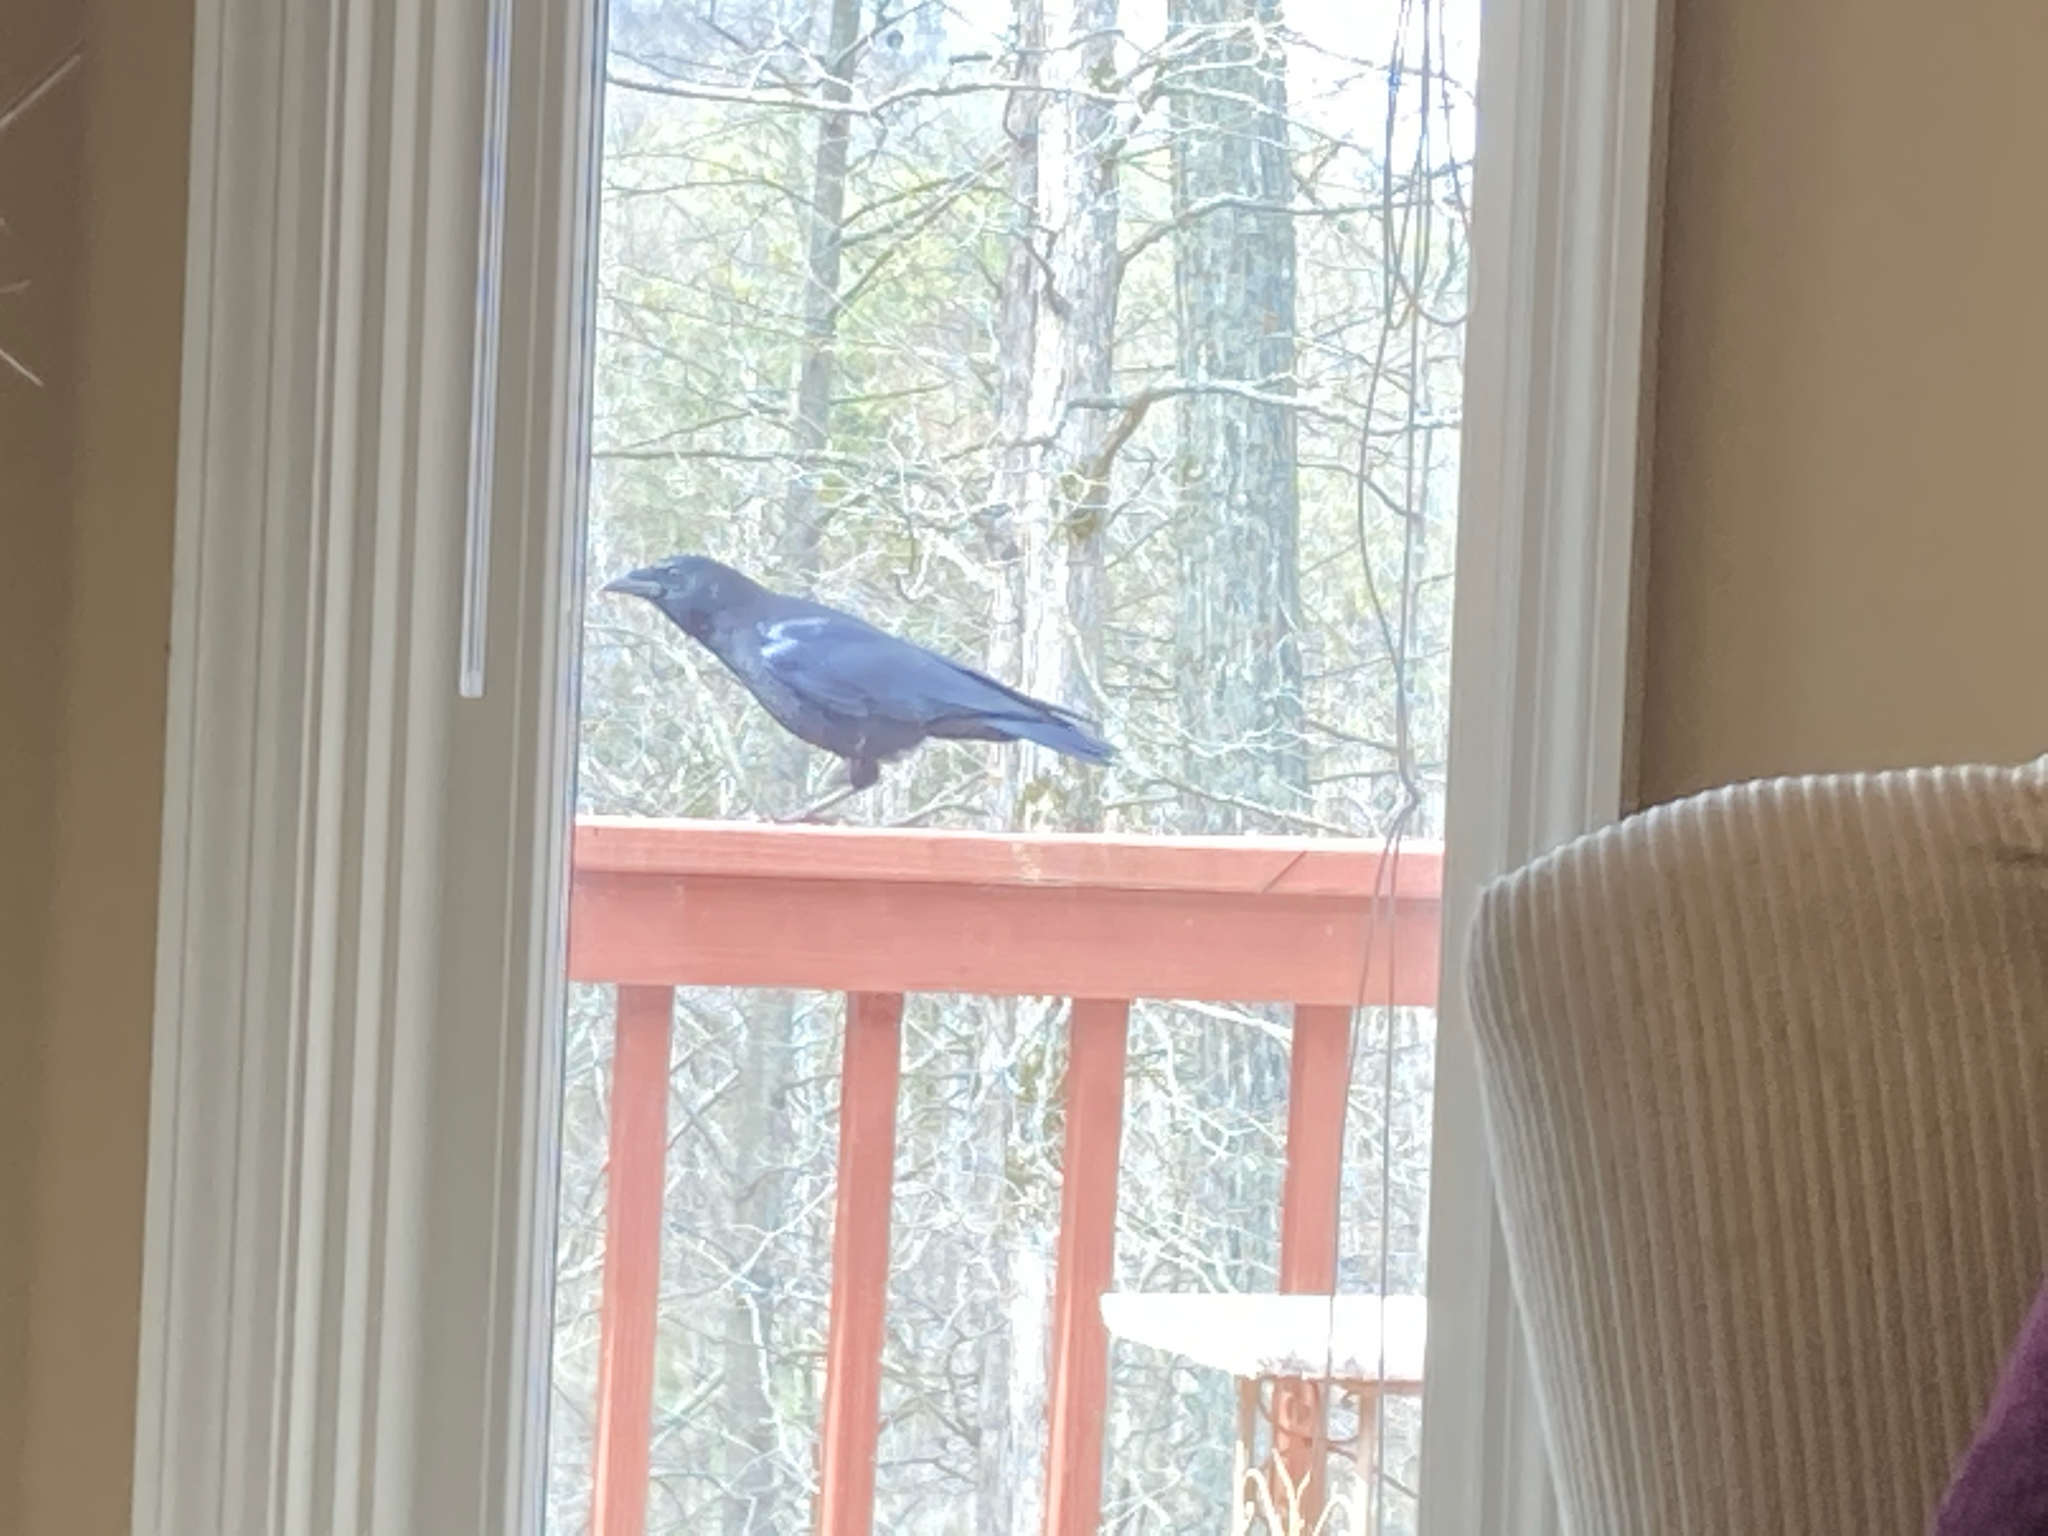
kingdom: Animalia
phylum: Chordata
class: Aves
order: Passeriformes
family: Corvidae
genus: Corvus
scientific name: Corvus brachyrhynchos
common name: American crow
